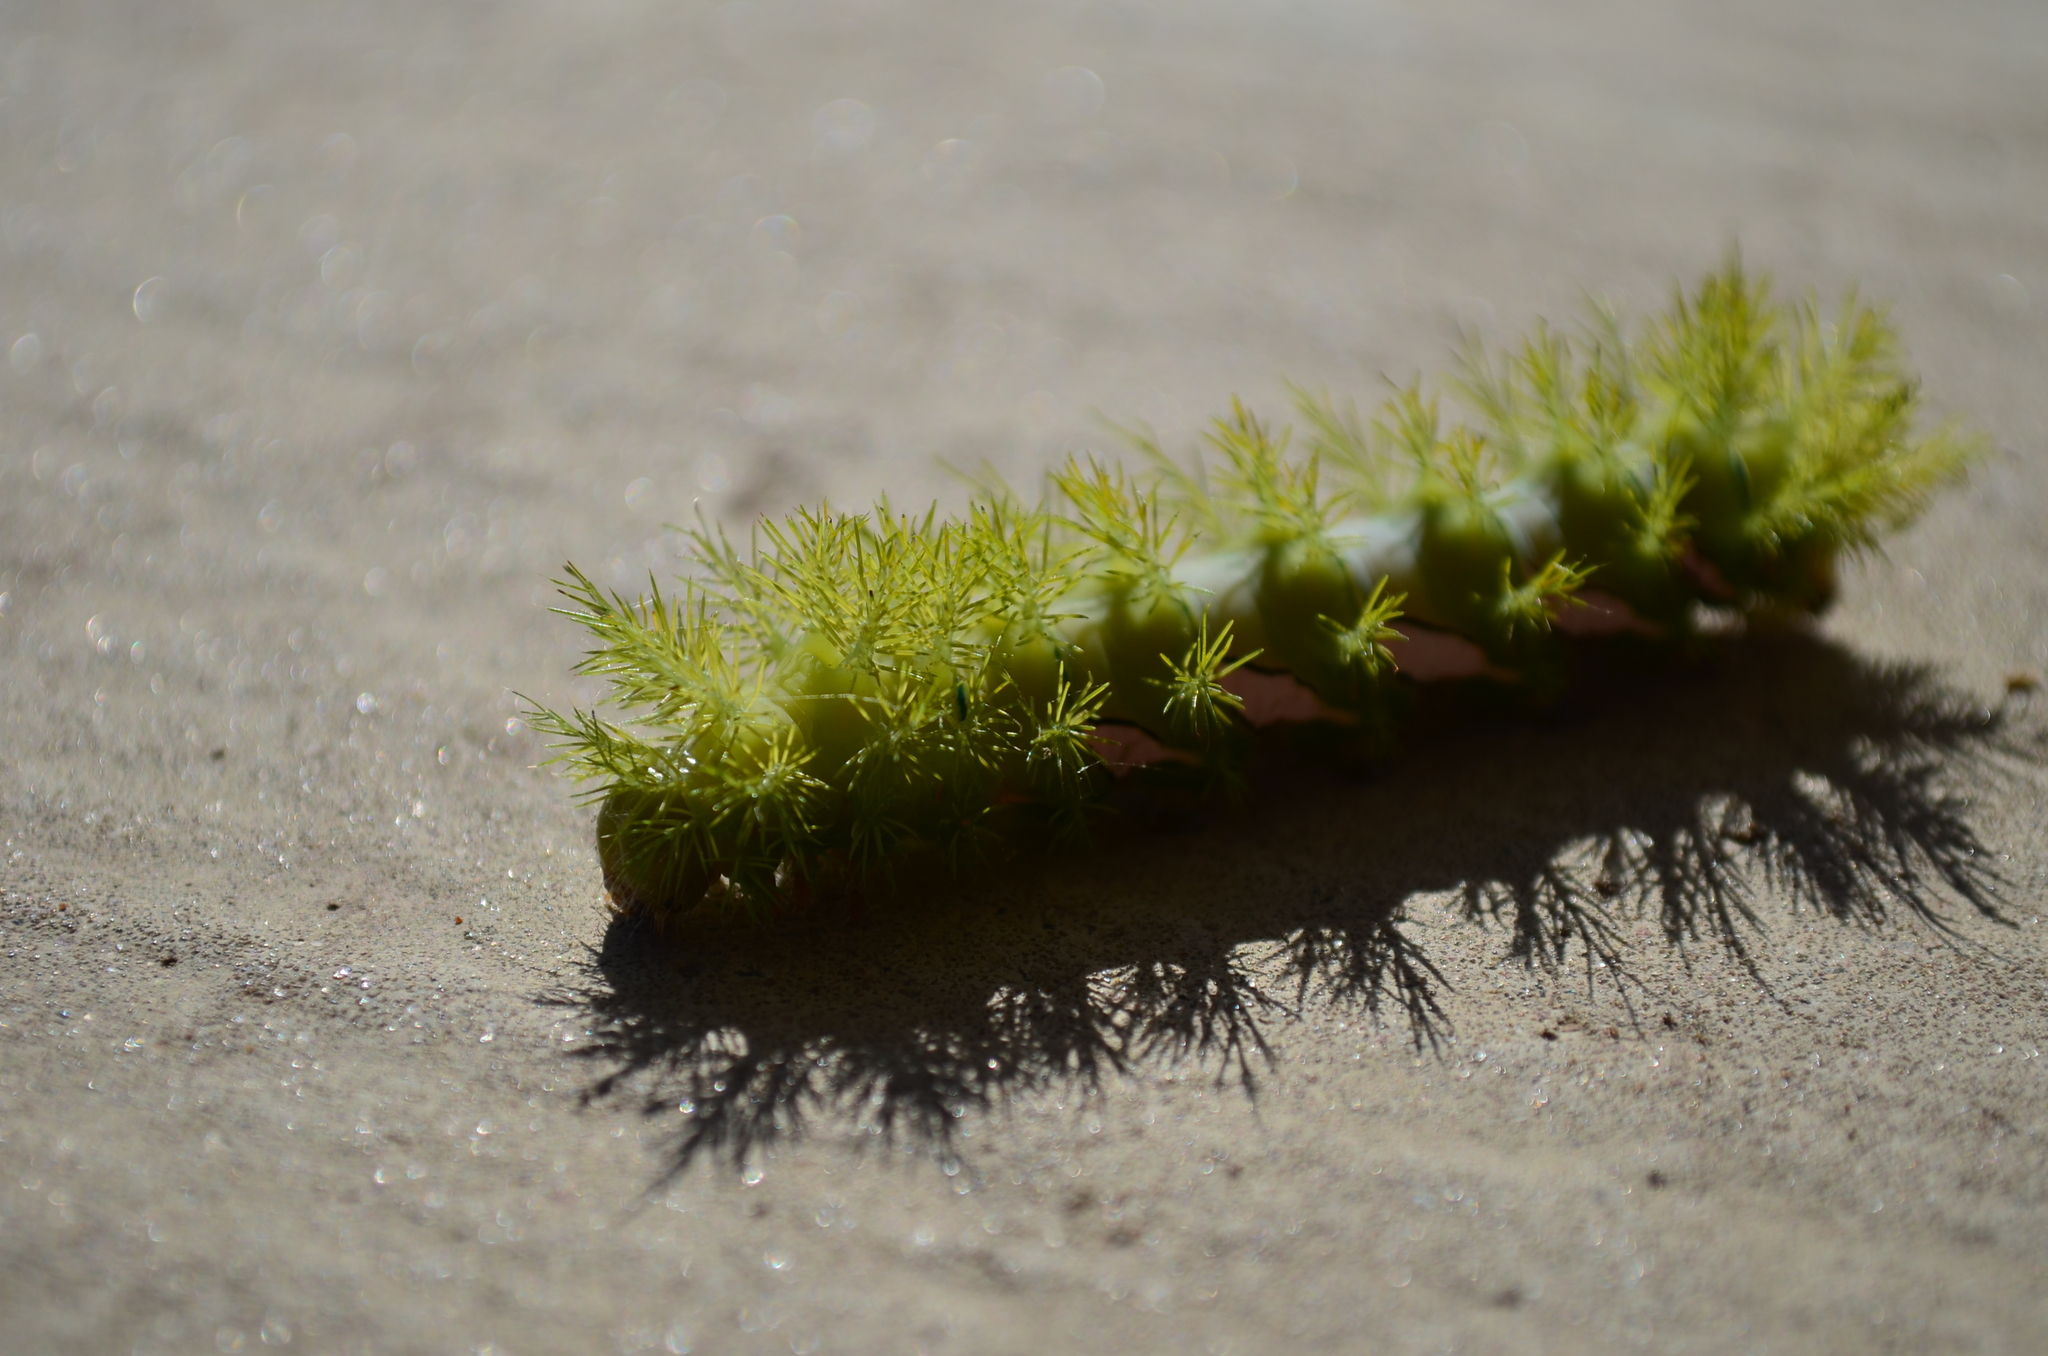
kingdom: Animalia
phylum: Arthropoda
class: Insecta
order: Lepidoptera
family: Saturniidae
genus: Automeris
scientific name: Automeris naranja
